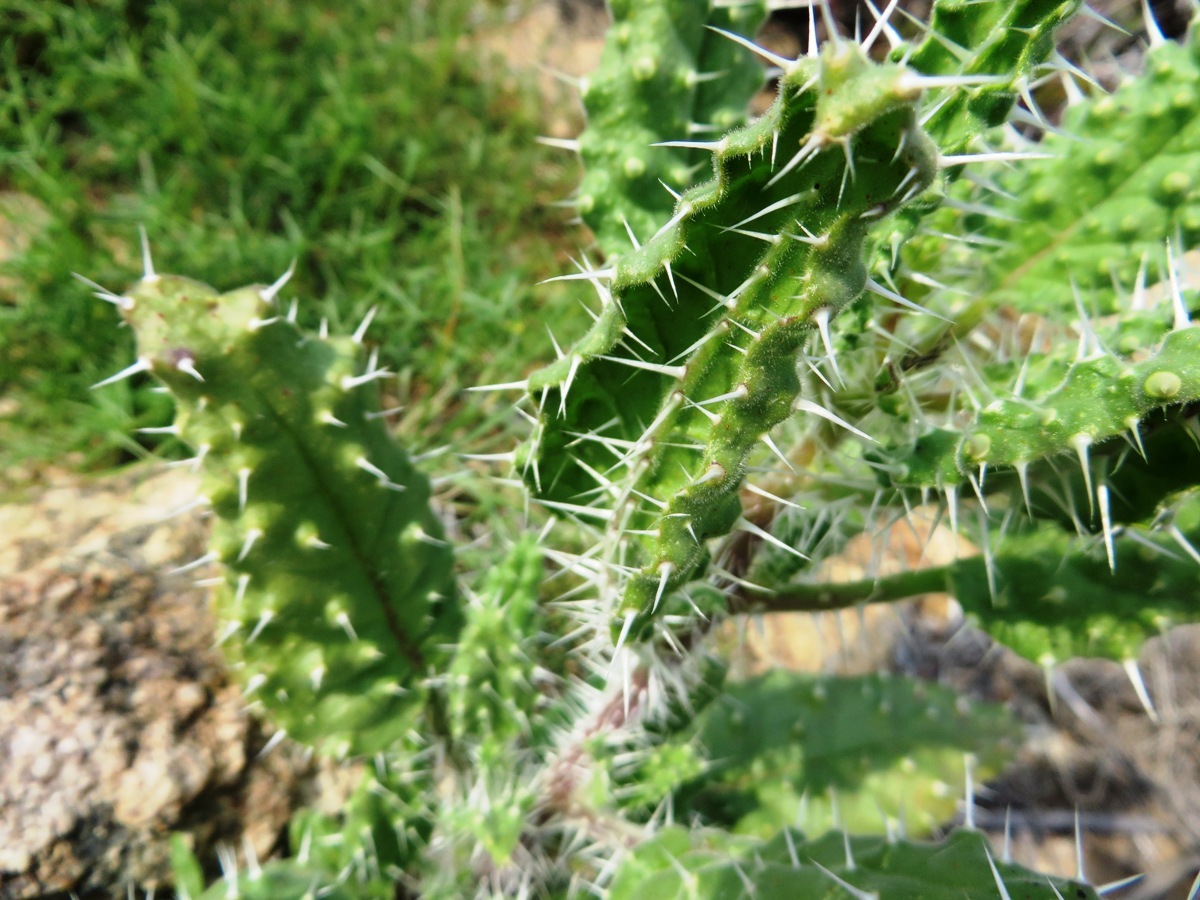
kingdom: Plantae
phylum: Tracheophyta
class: Magnoliopsida
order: Boraginales
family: Boraginaceae
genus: Codon
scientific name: Codon royenii
